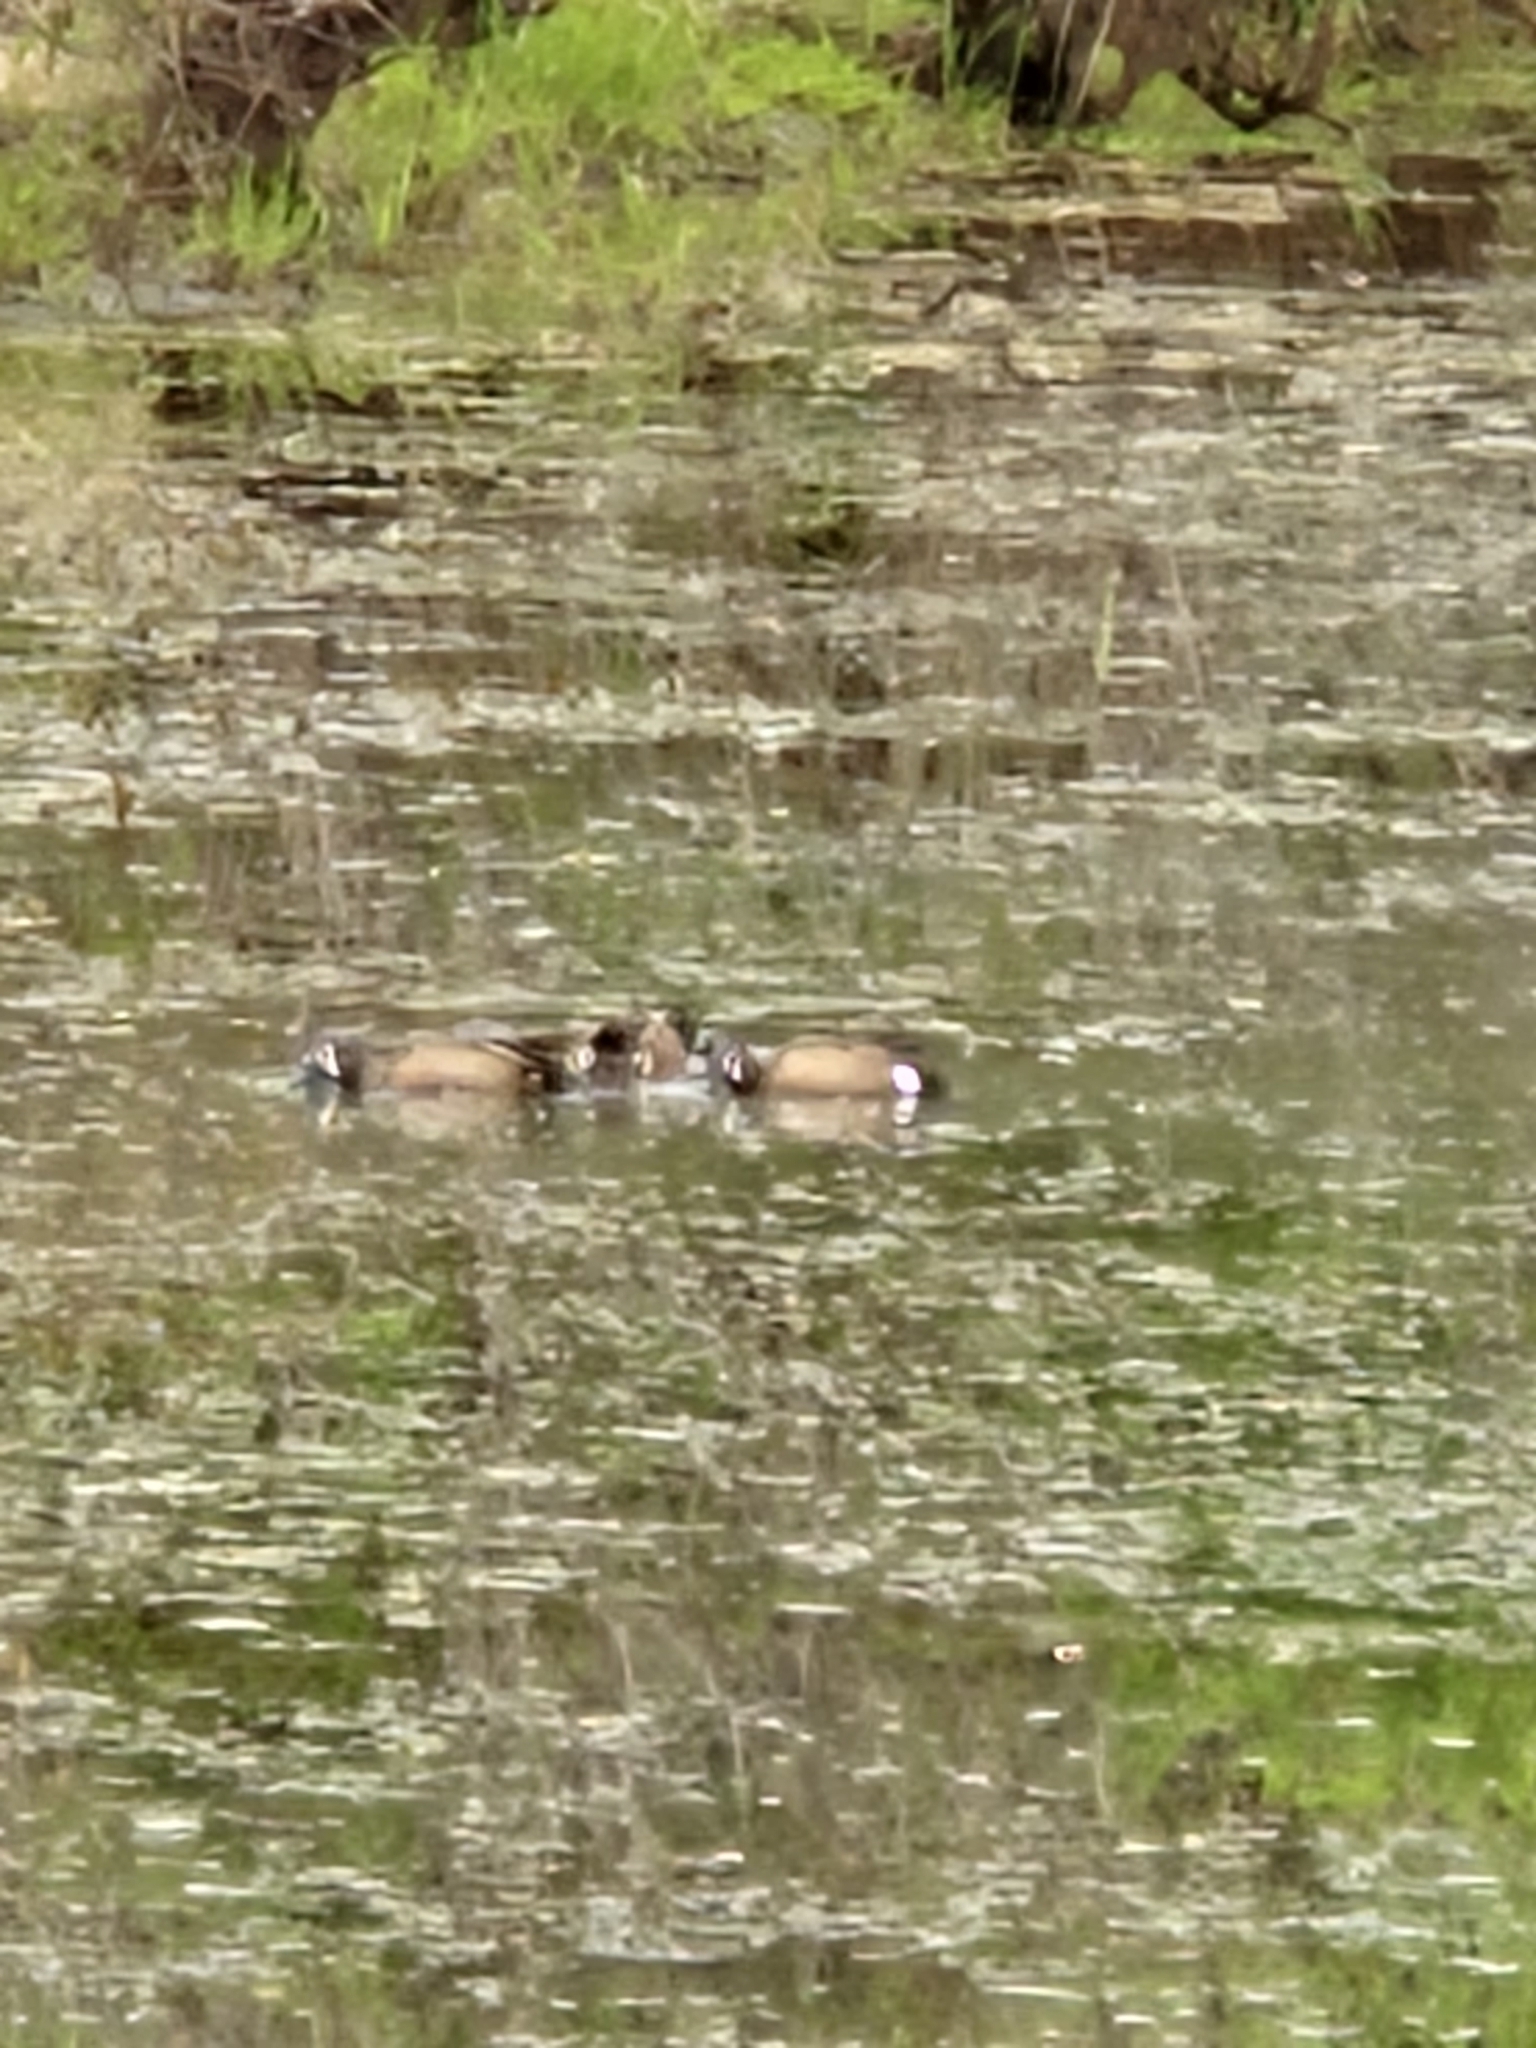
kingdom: Animalia
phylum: Chordata
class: Aves
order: Anseriformes
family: Anatidae
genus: Spatula
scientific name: Spatula discors
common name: Blue-winged teal
